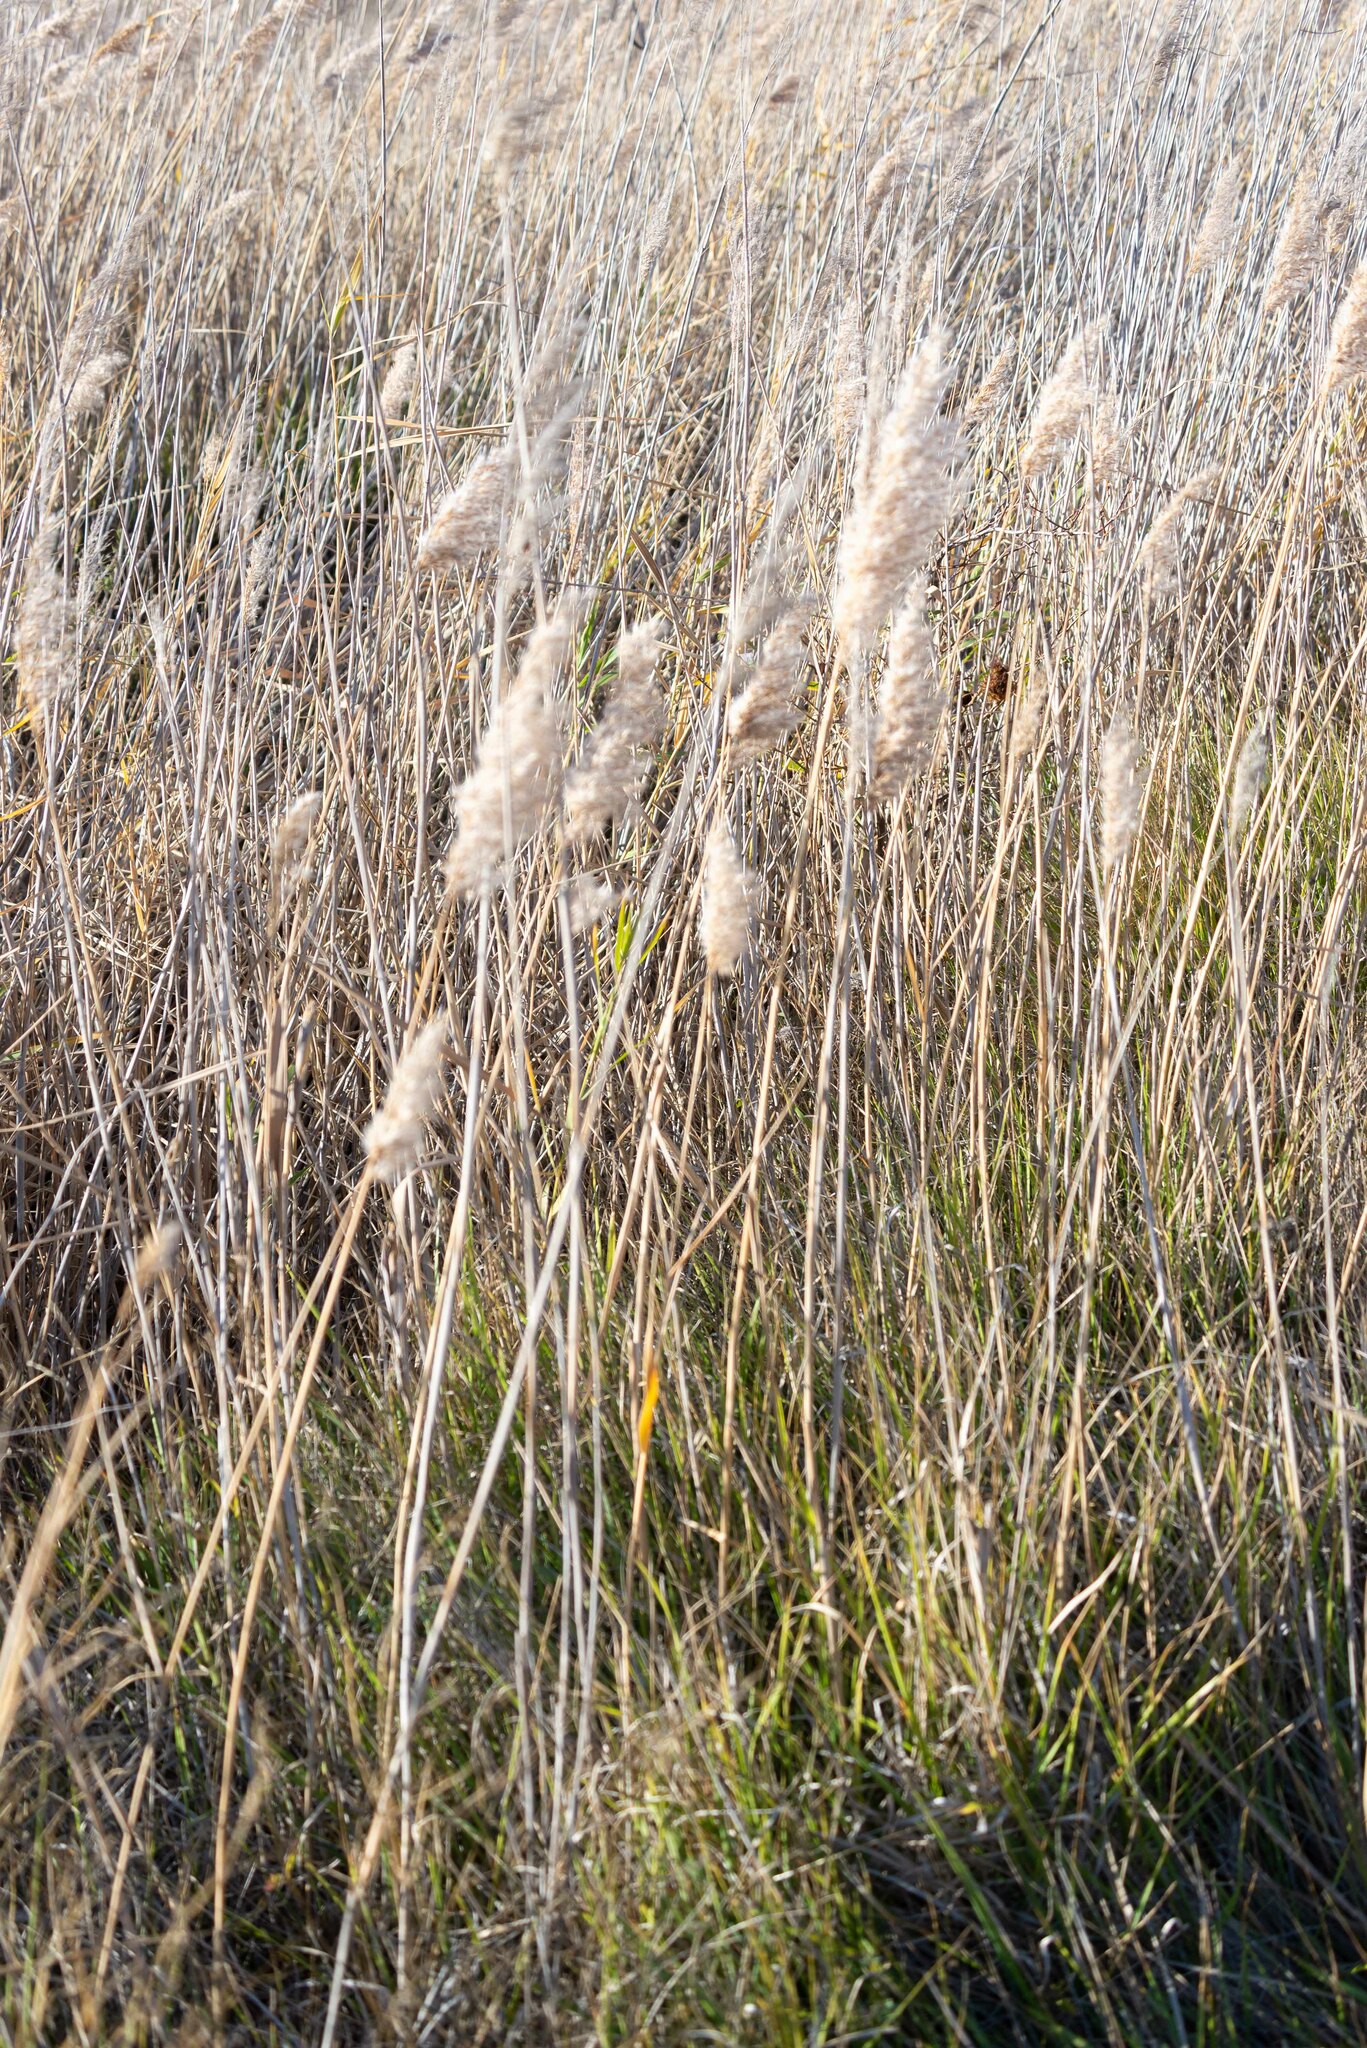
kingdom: Plantae
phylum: Tracheophyta
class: Liliopsida
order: Poales
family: Poaceae
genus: Phragmites
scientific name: Phragmites australis
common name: Common reed
